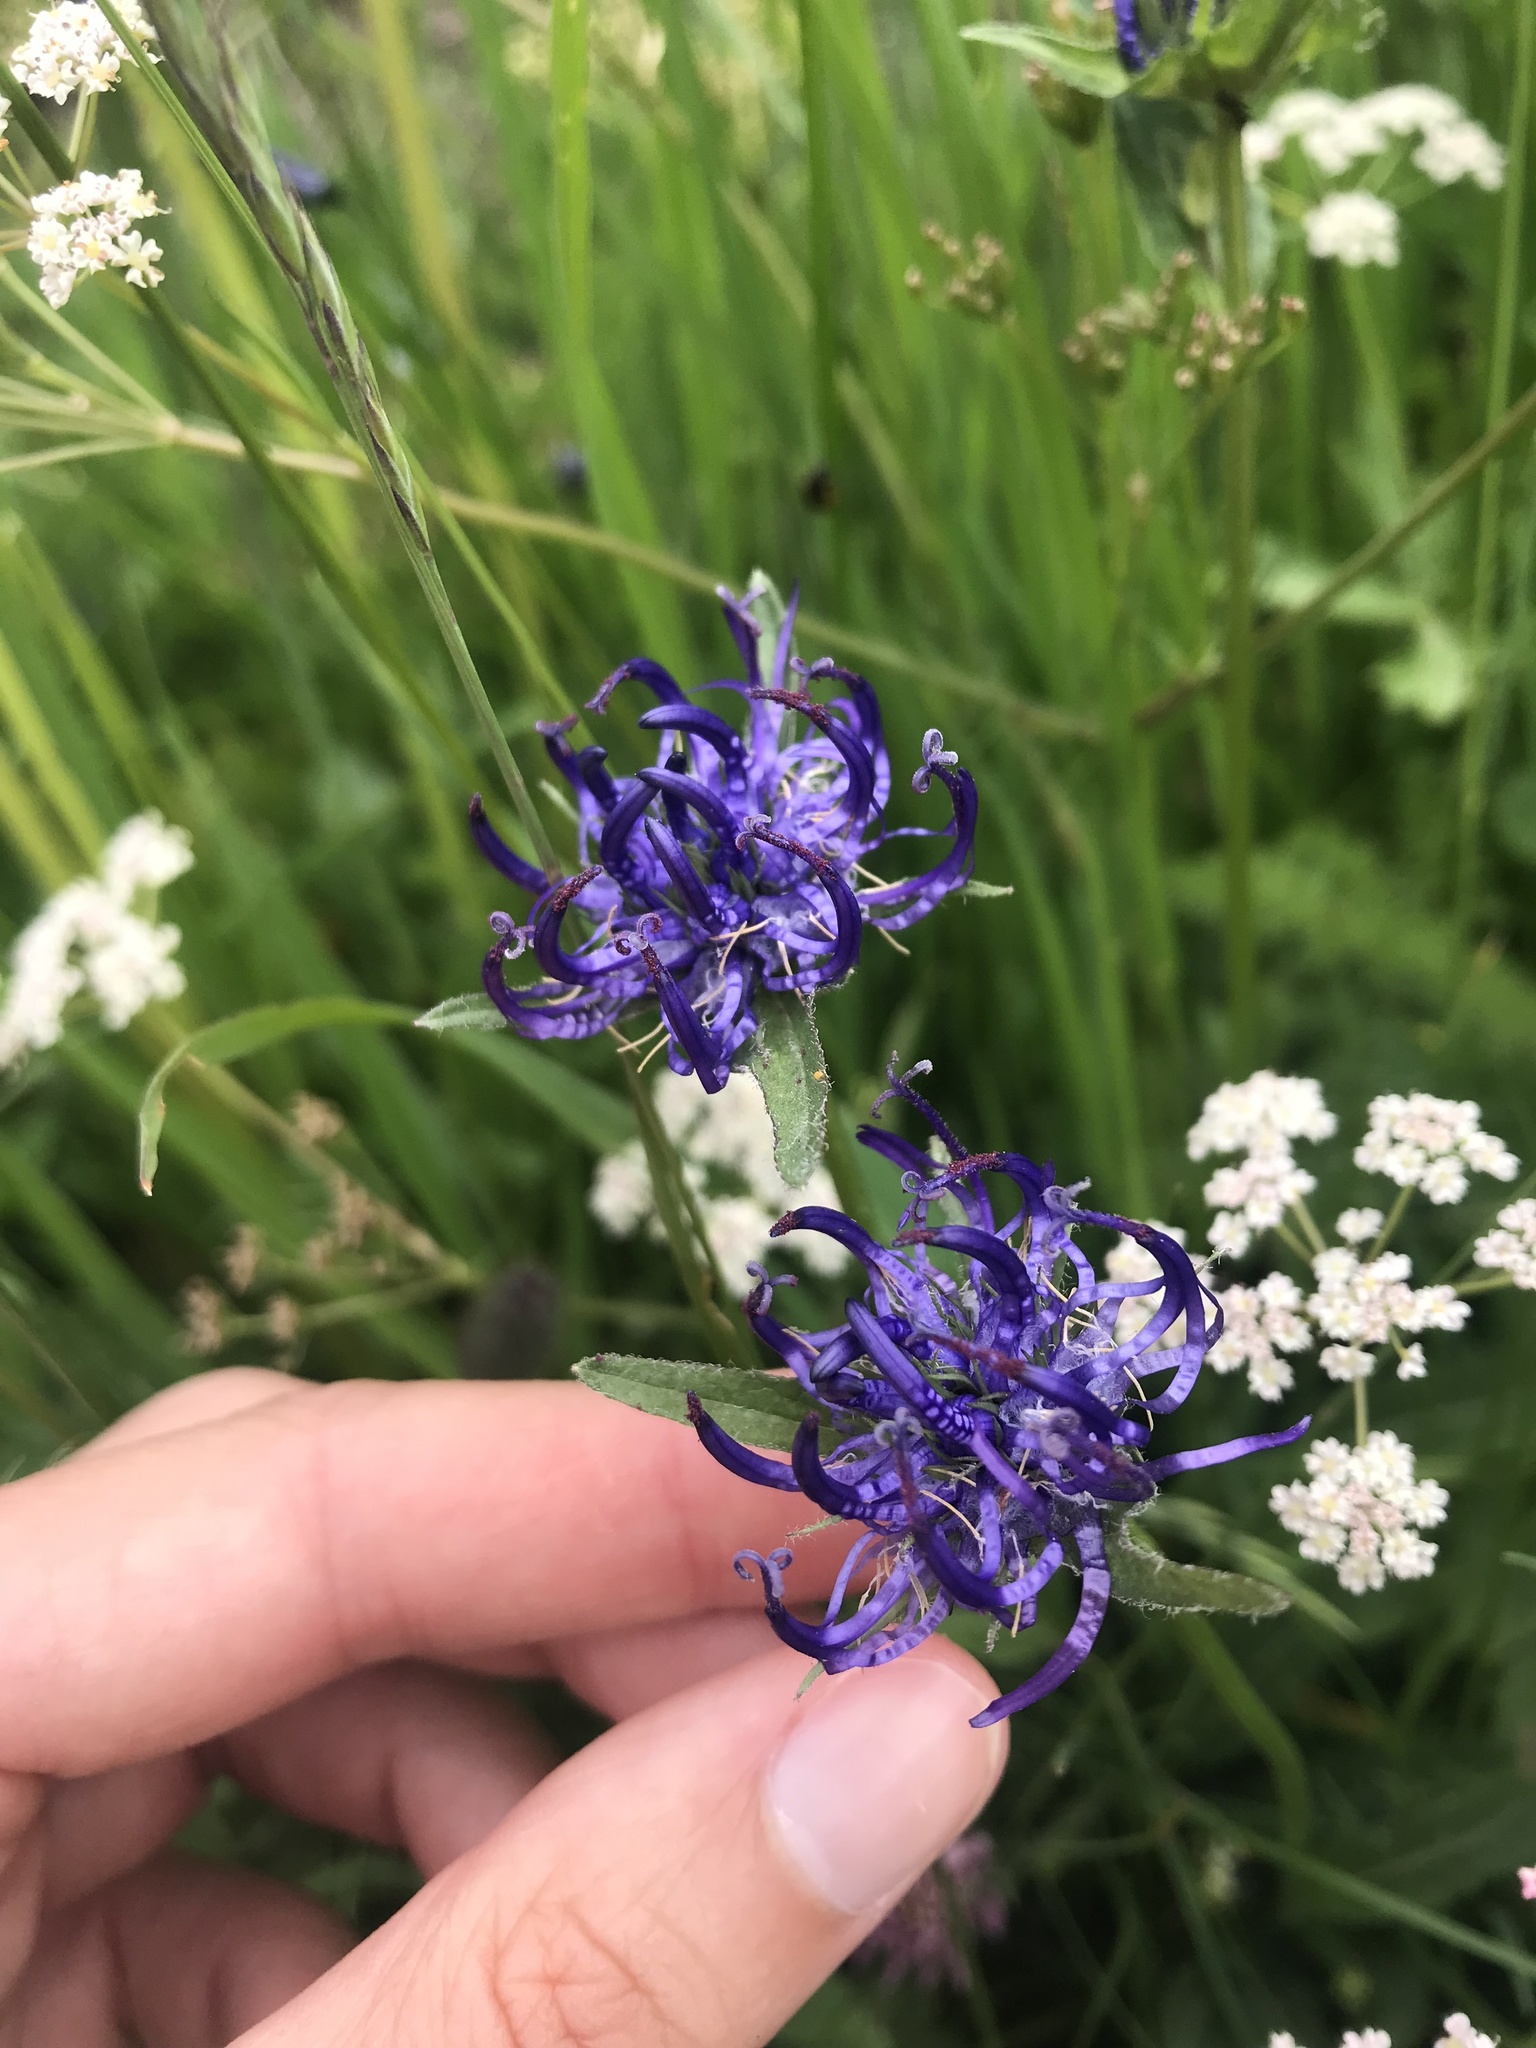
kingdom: Plantae
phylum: Tracheophyta
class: Magnoliopsida
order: Asterales
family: Campanulaceae
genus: Phyteuma
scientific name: Phyteuma orbiculare
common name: Round-headed rampion
